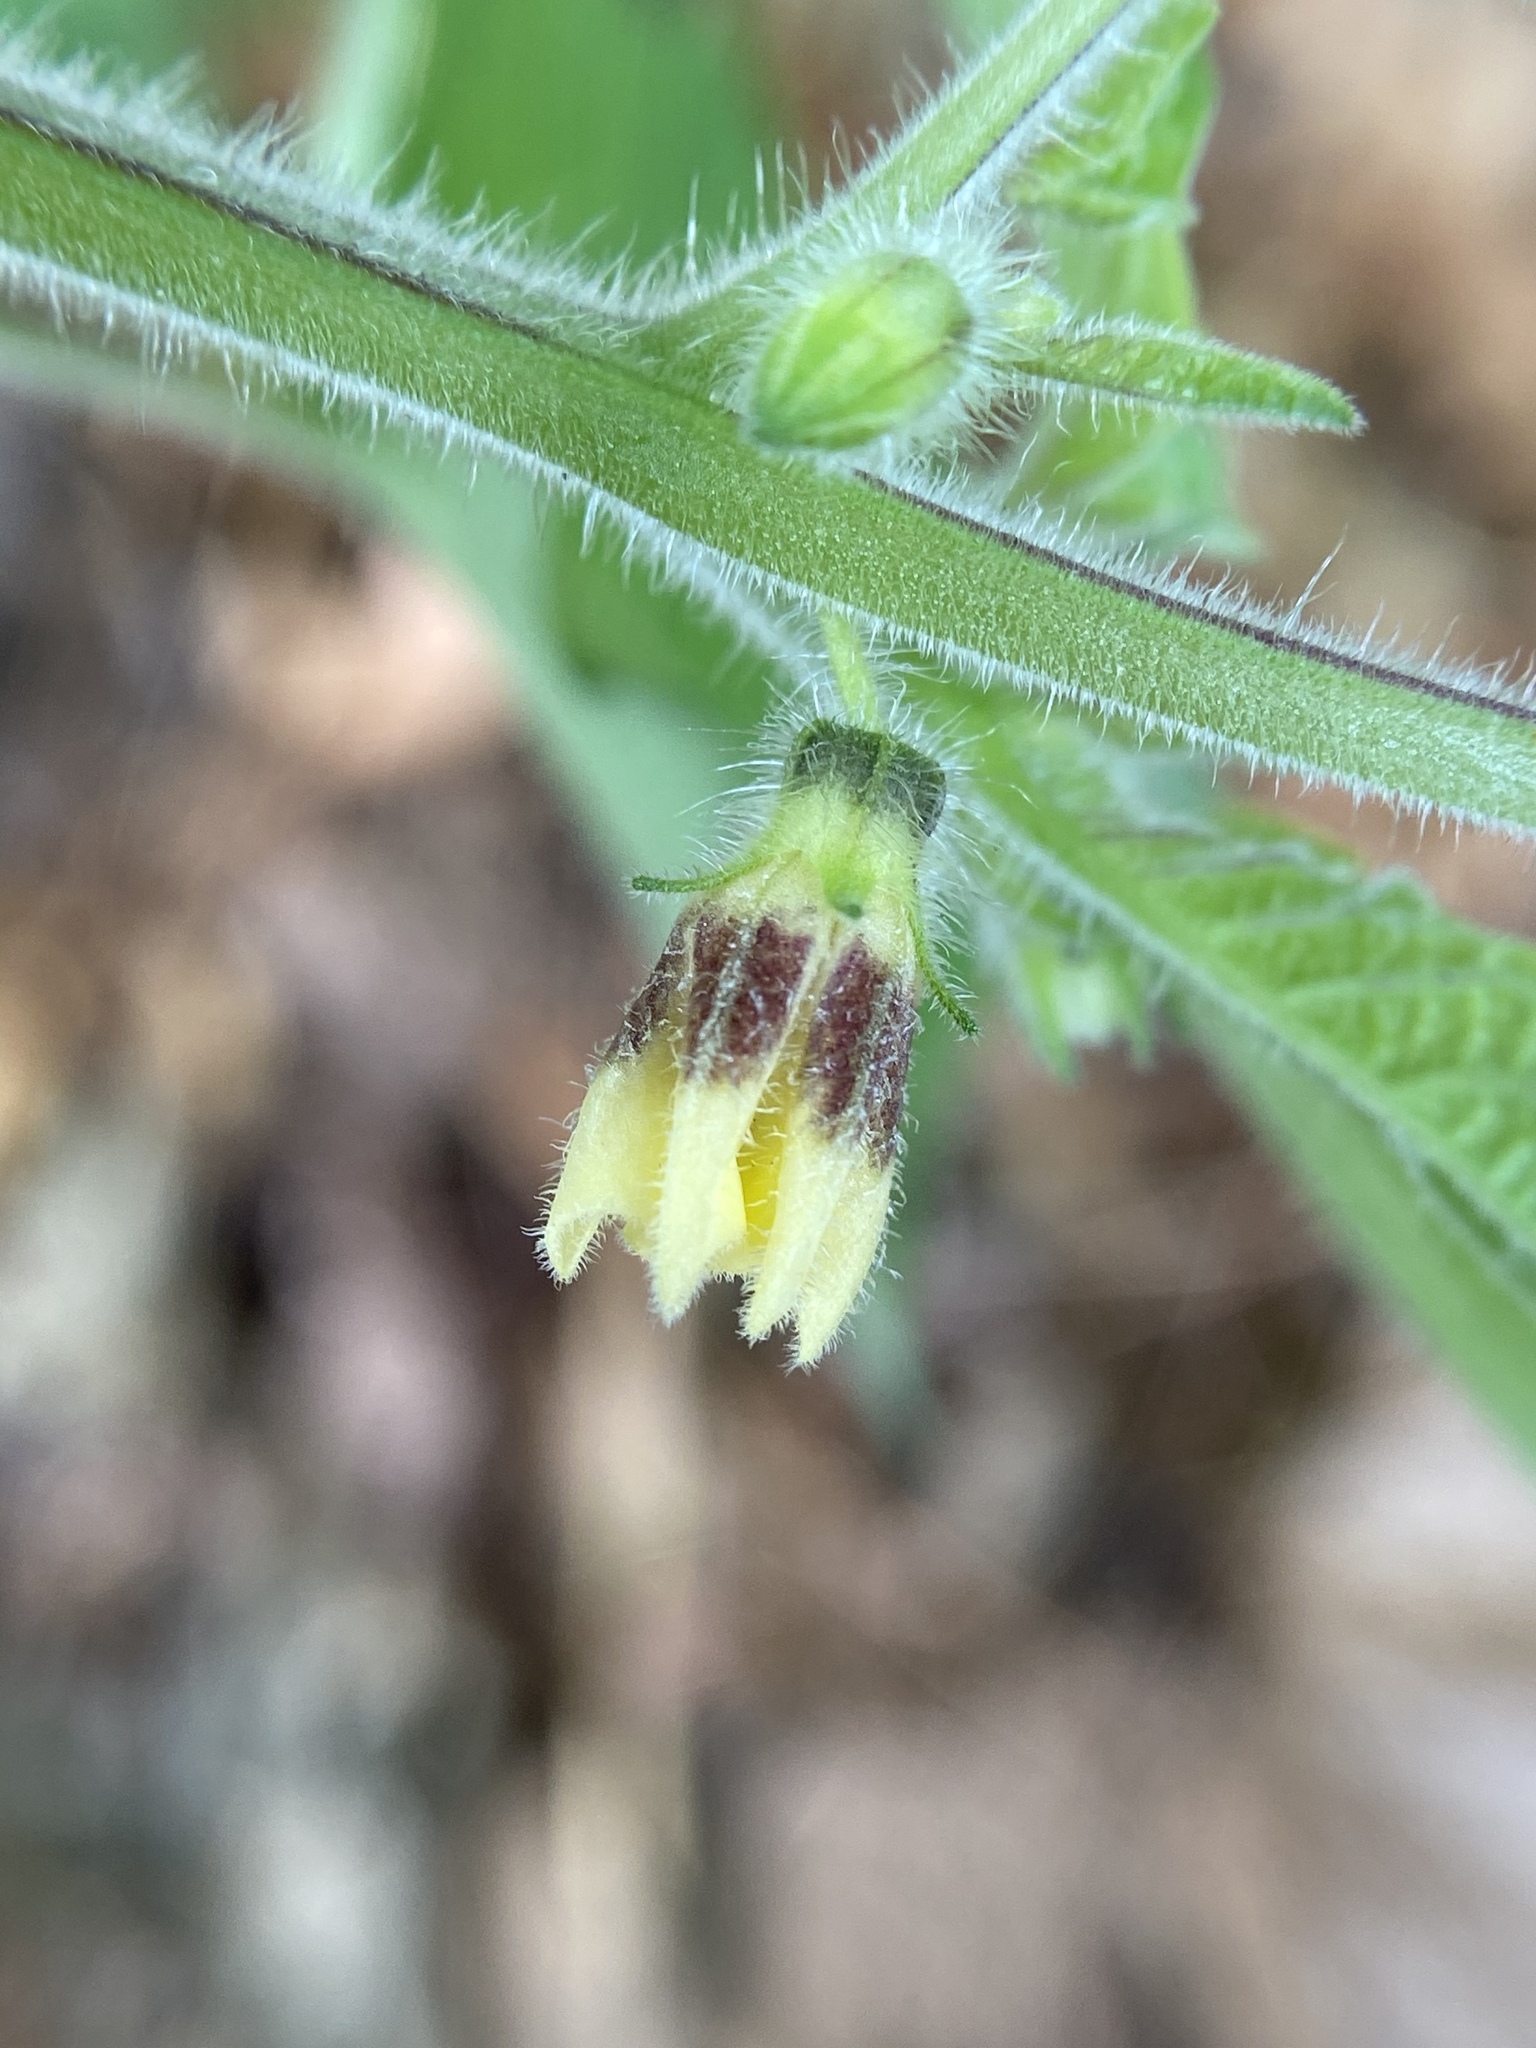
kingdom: Plantae
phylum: Tracheophyta
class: Magnoliopsida
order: Solanales
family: Solanaceae
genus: Physalis
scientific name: Physalis grisea
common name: Dwarf cape-gooseberry
